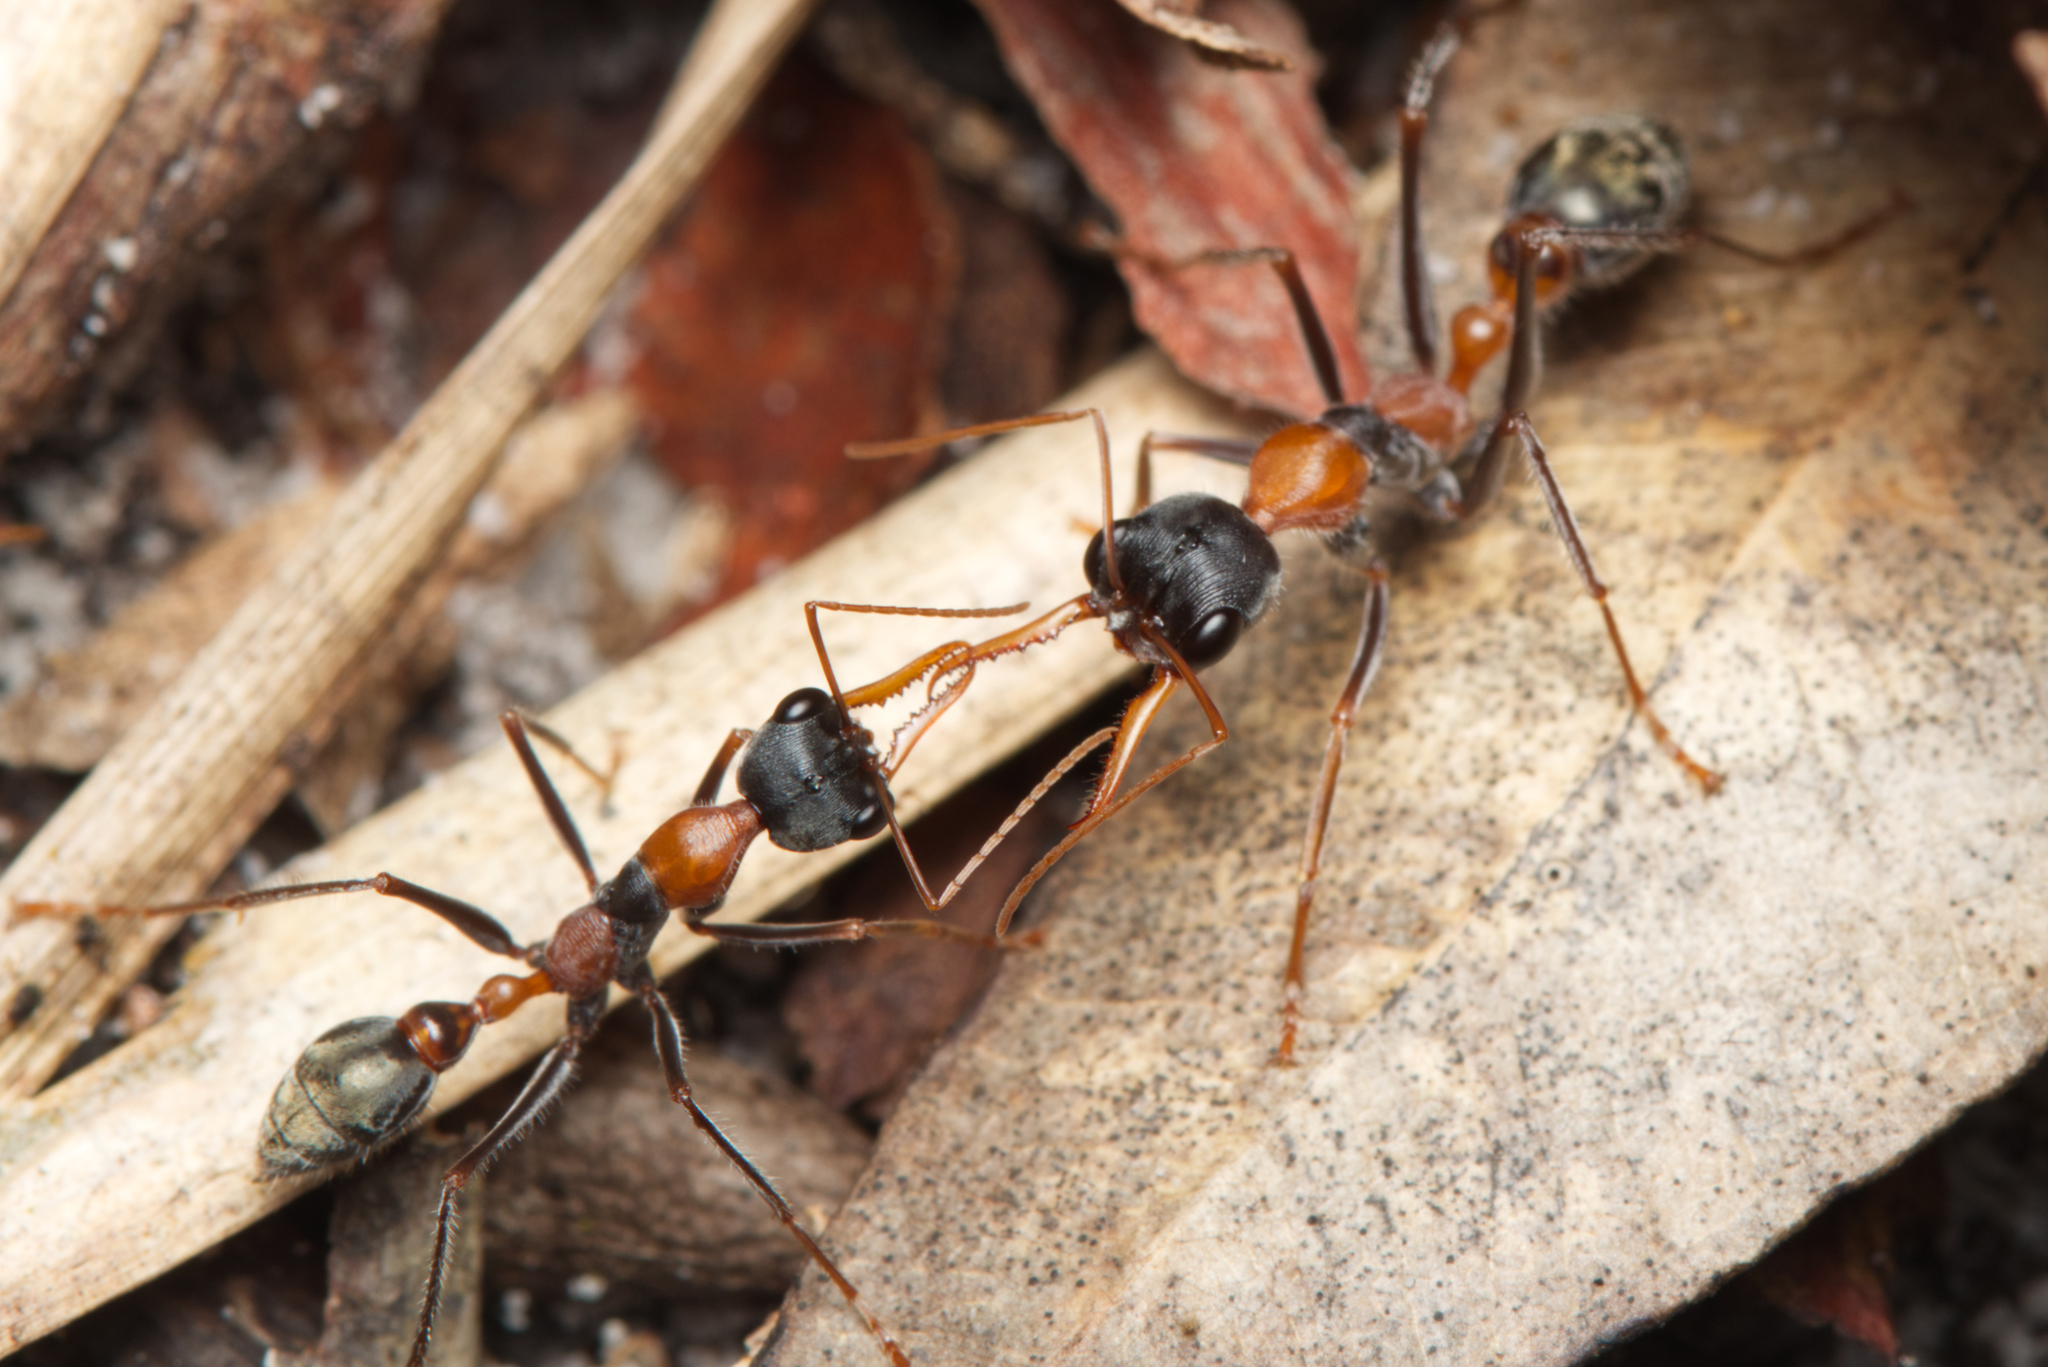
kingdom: Animalia
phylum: Arthropoda
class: Insecta
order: Hymenoptera
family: Formicidae
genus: Myrmecia
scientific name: Myrmecia nigrocincta
